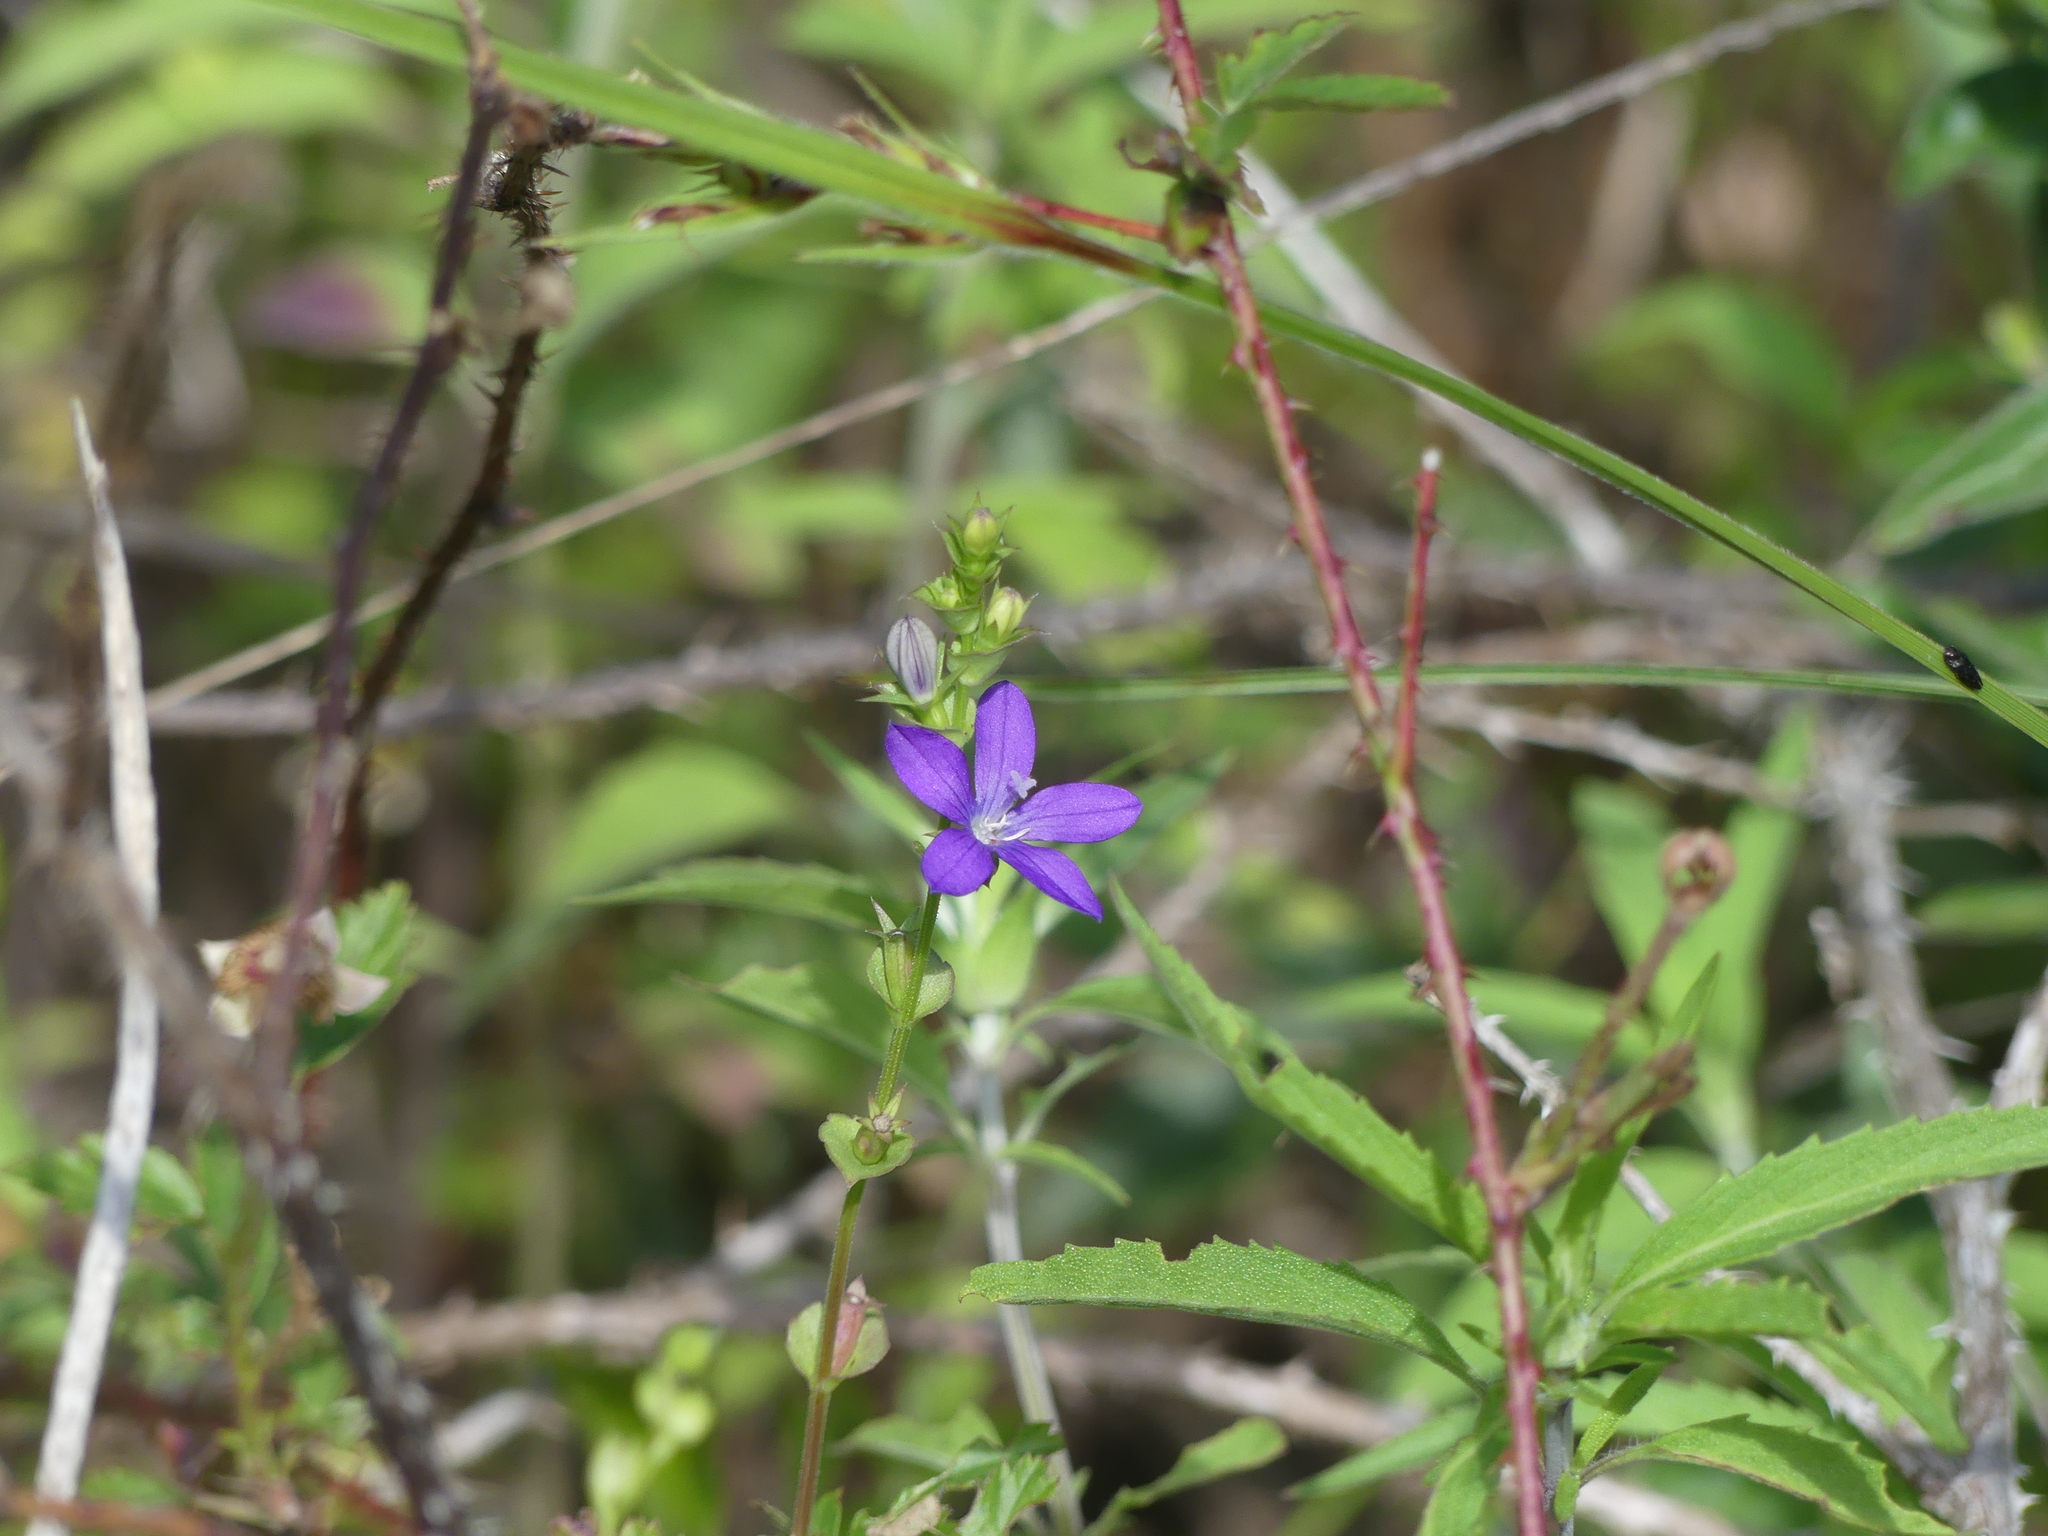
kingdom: Plantae
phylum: Tracheophyta
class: Magnoliopsida
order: Asterales
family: Campanulaceae
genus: Triodanis
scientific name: Triodanis perfoliata
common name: Clasping venus' looking-glass
